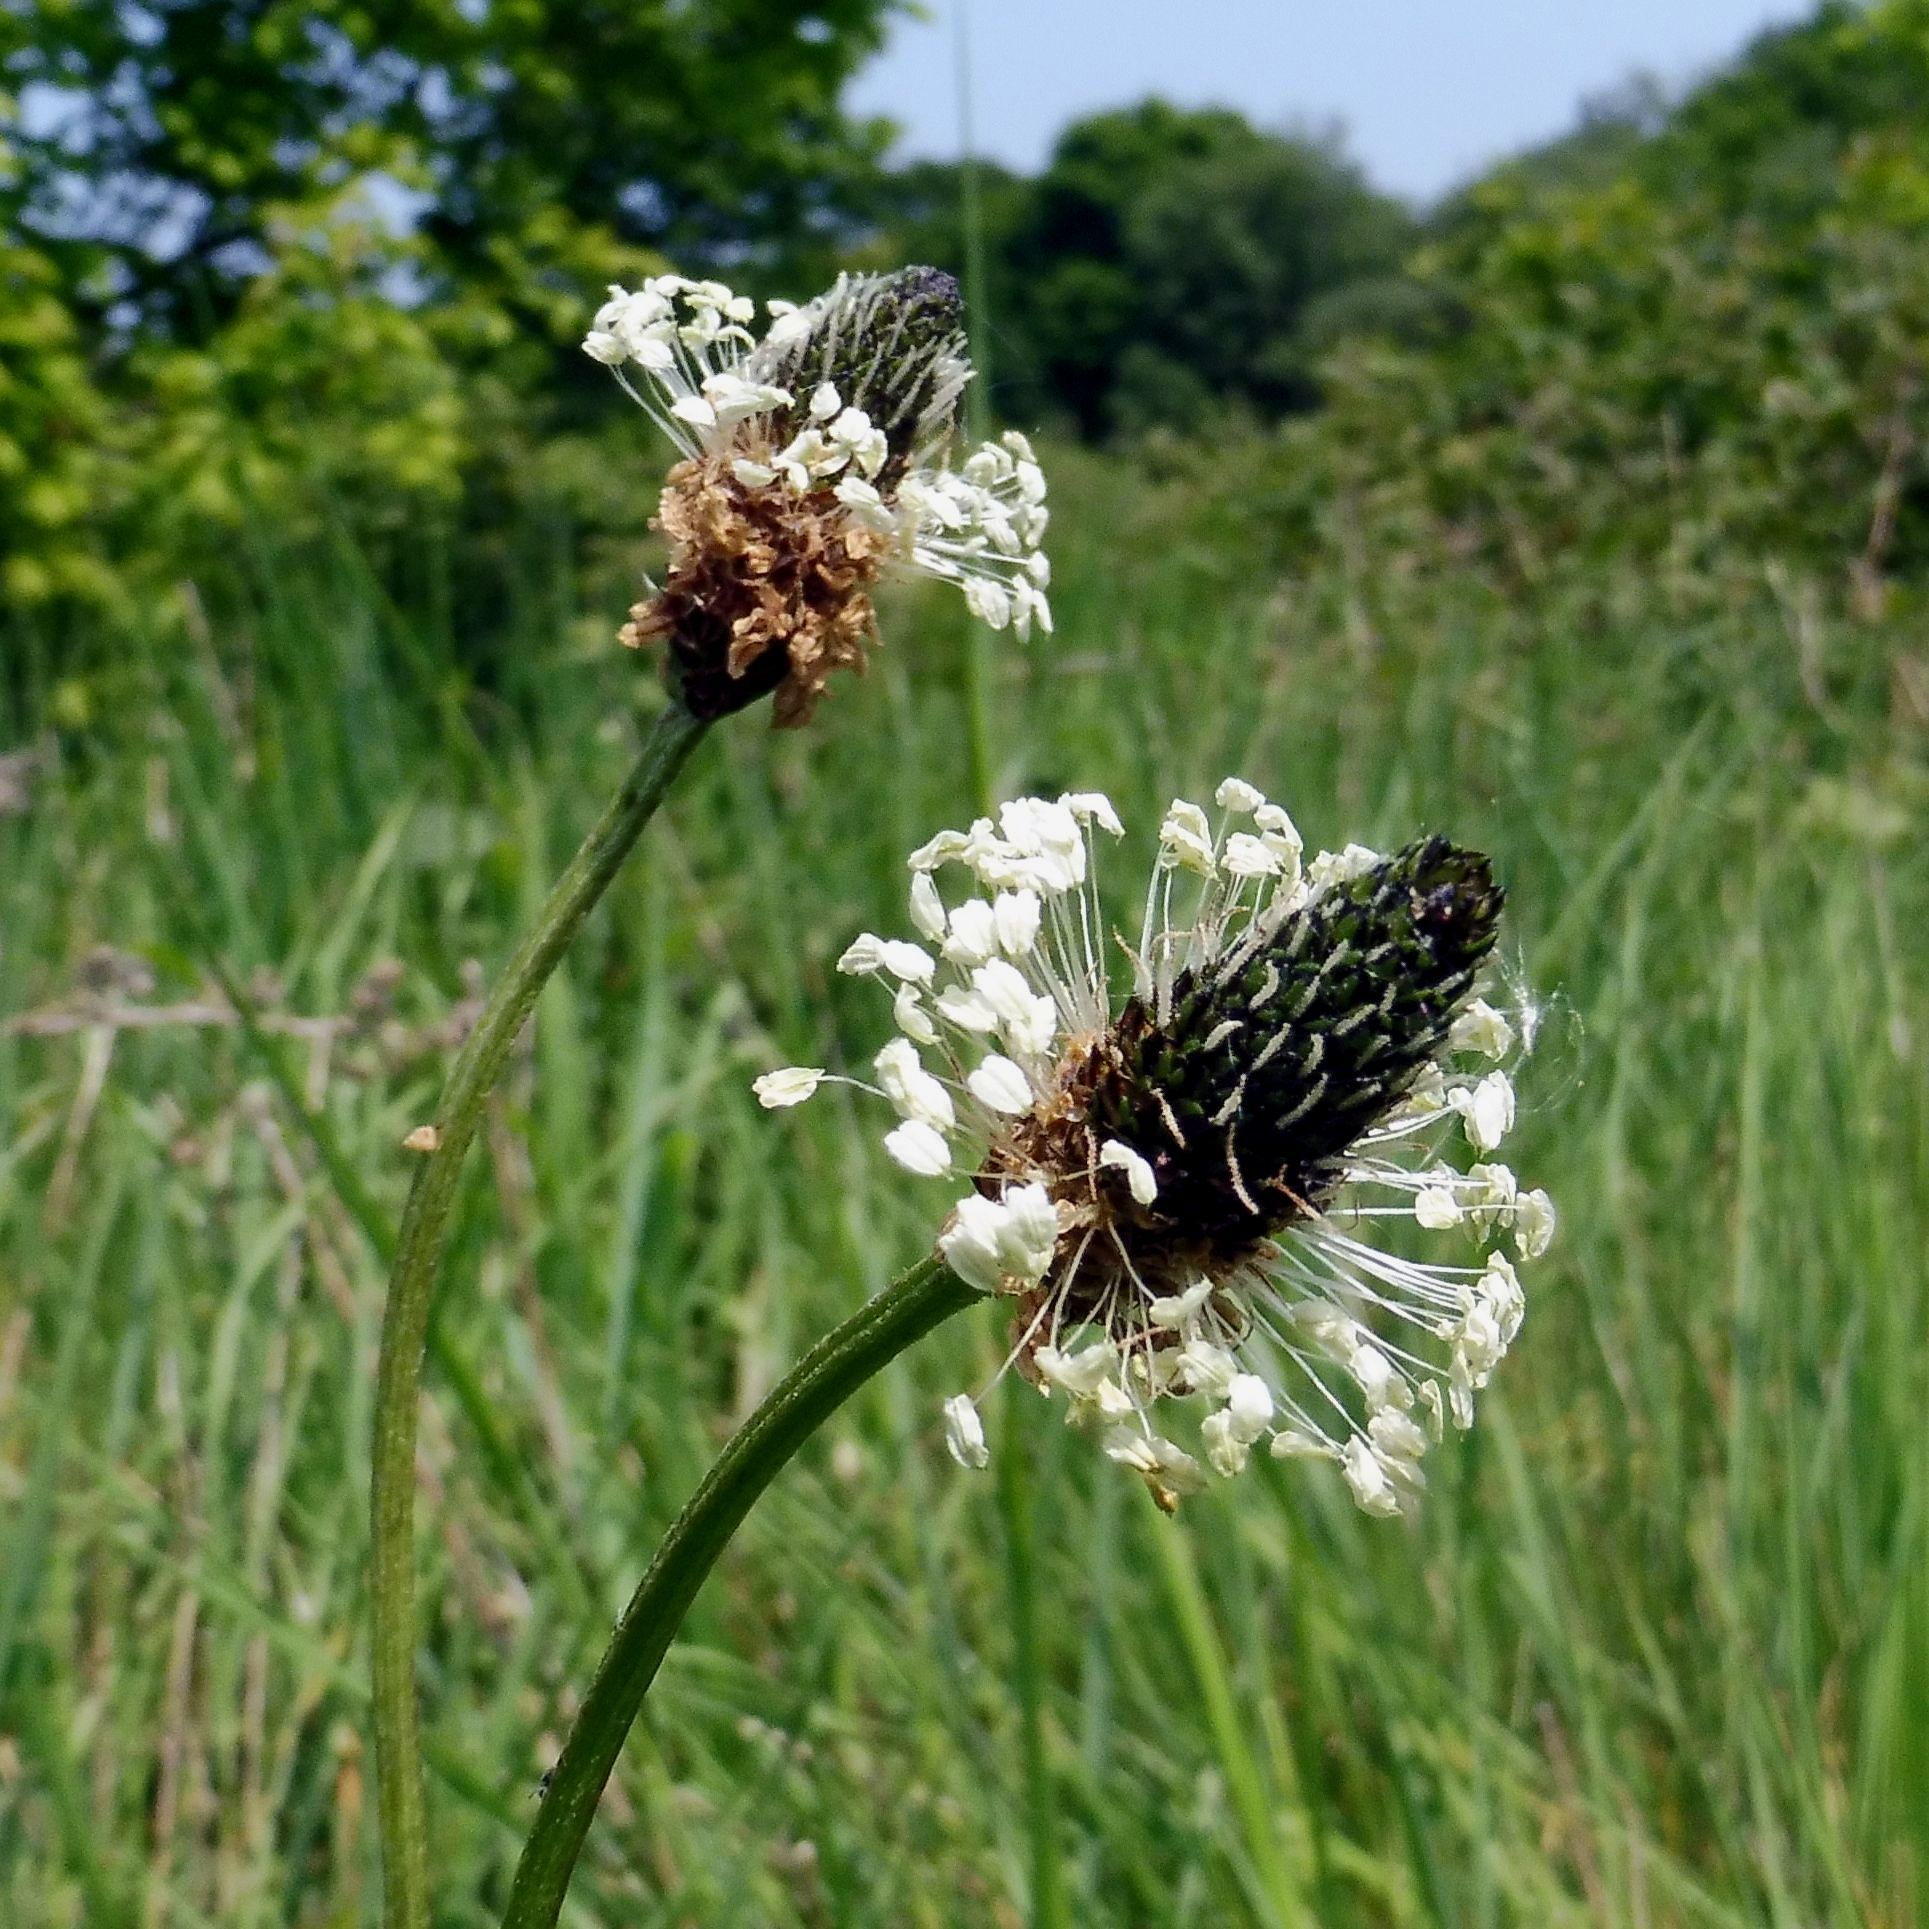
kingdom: Plantae
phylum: Tracheophyta
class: Magnoliopsida
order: Lamiales
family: Plantaginaceae
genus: Plantago
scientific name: Plantago lanceolata
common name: Ribwort plantain
